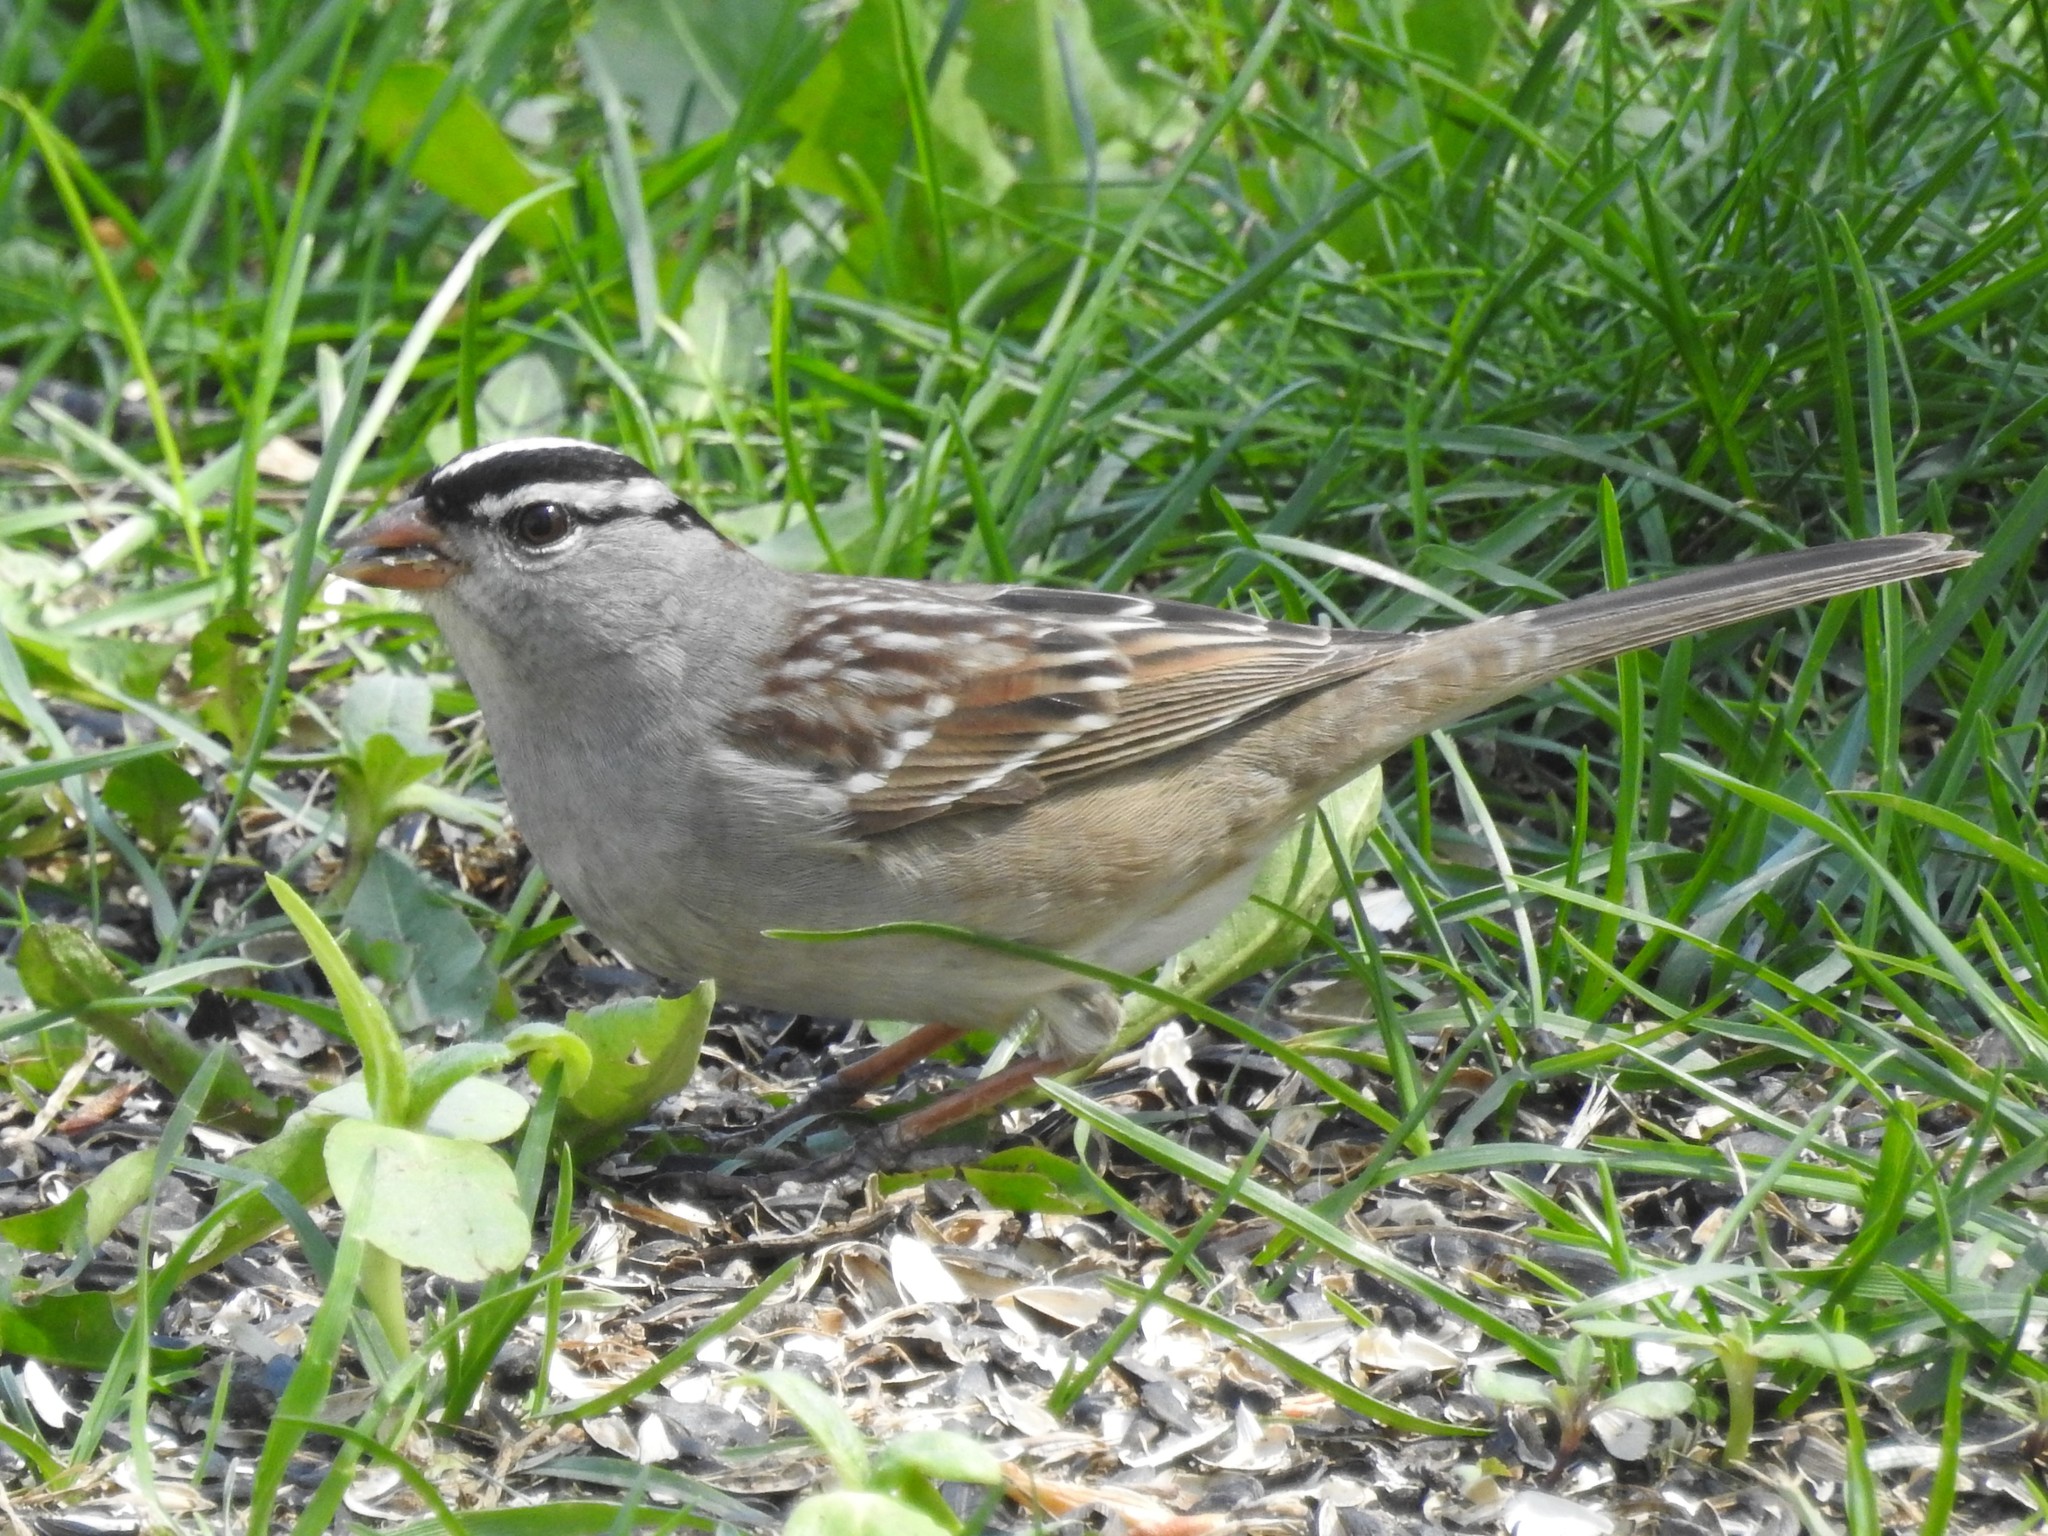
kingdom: Animalia
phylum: Chordata
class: Aves
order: Passeriformes
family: Passerellidae
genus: Zonotrichia
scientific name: Zonotrichia leucophrys
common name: White-crowned sparrow
